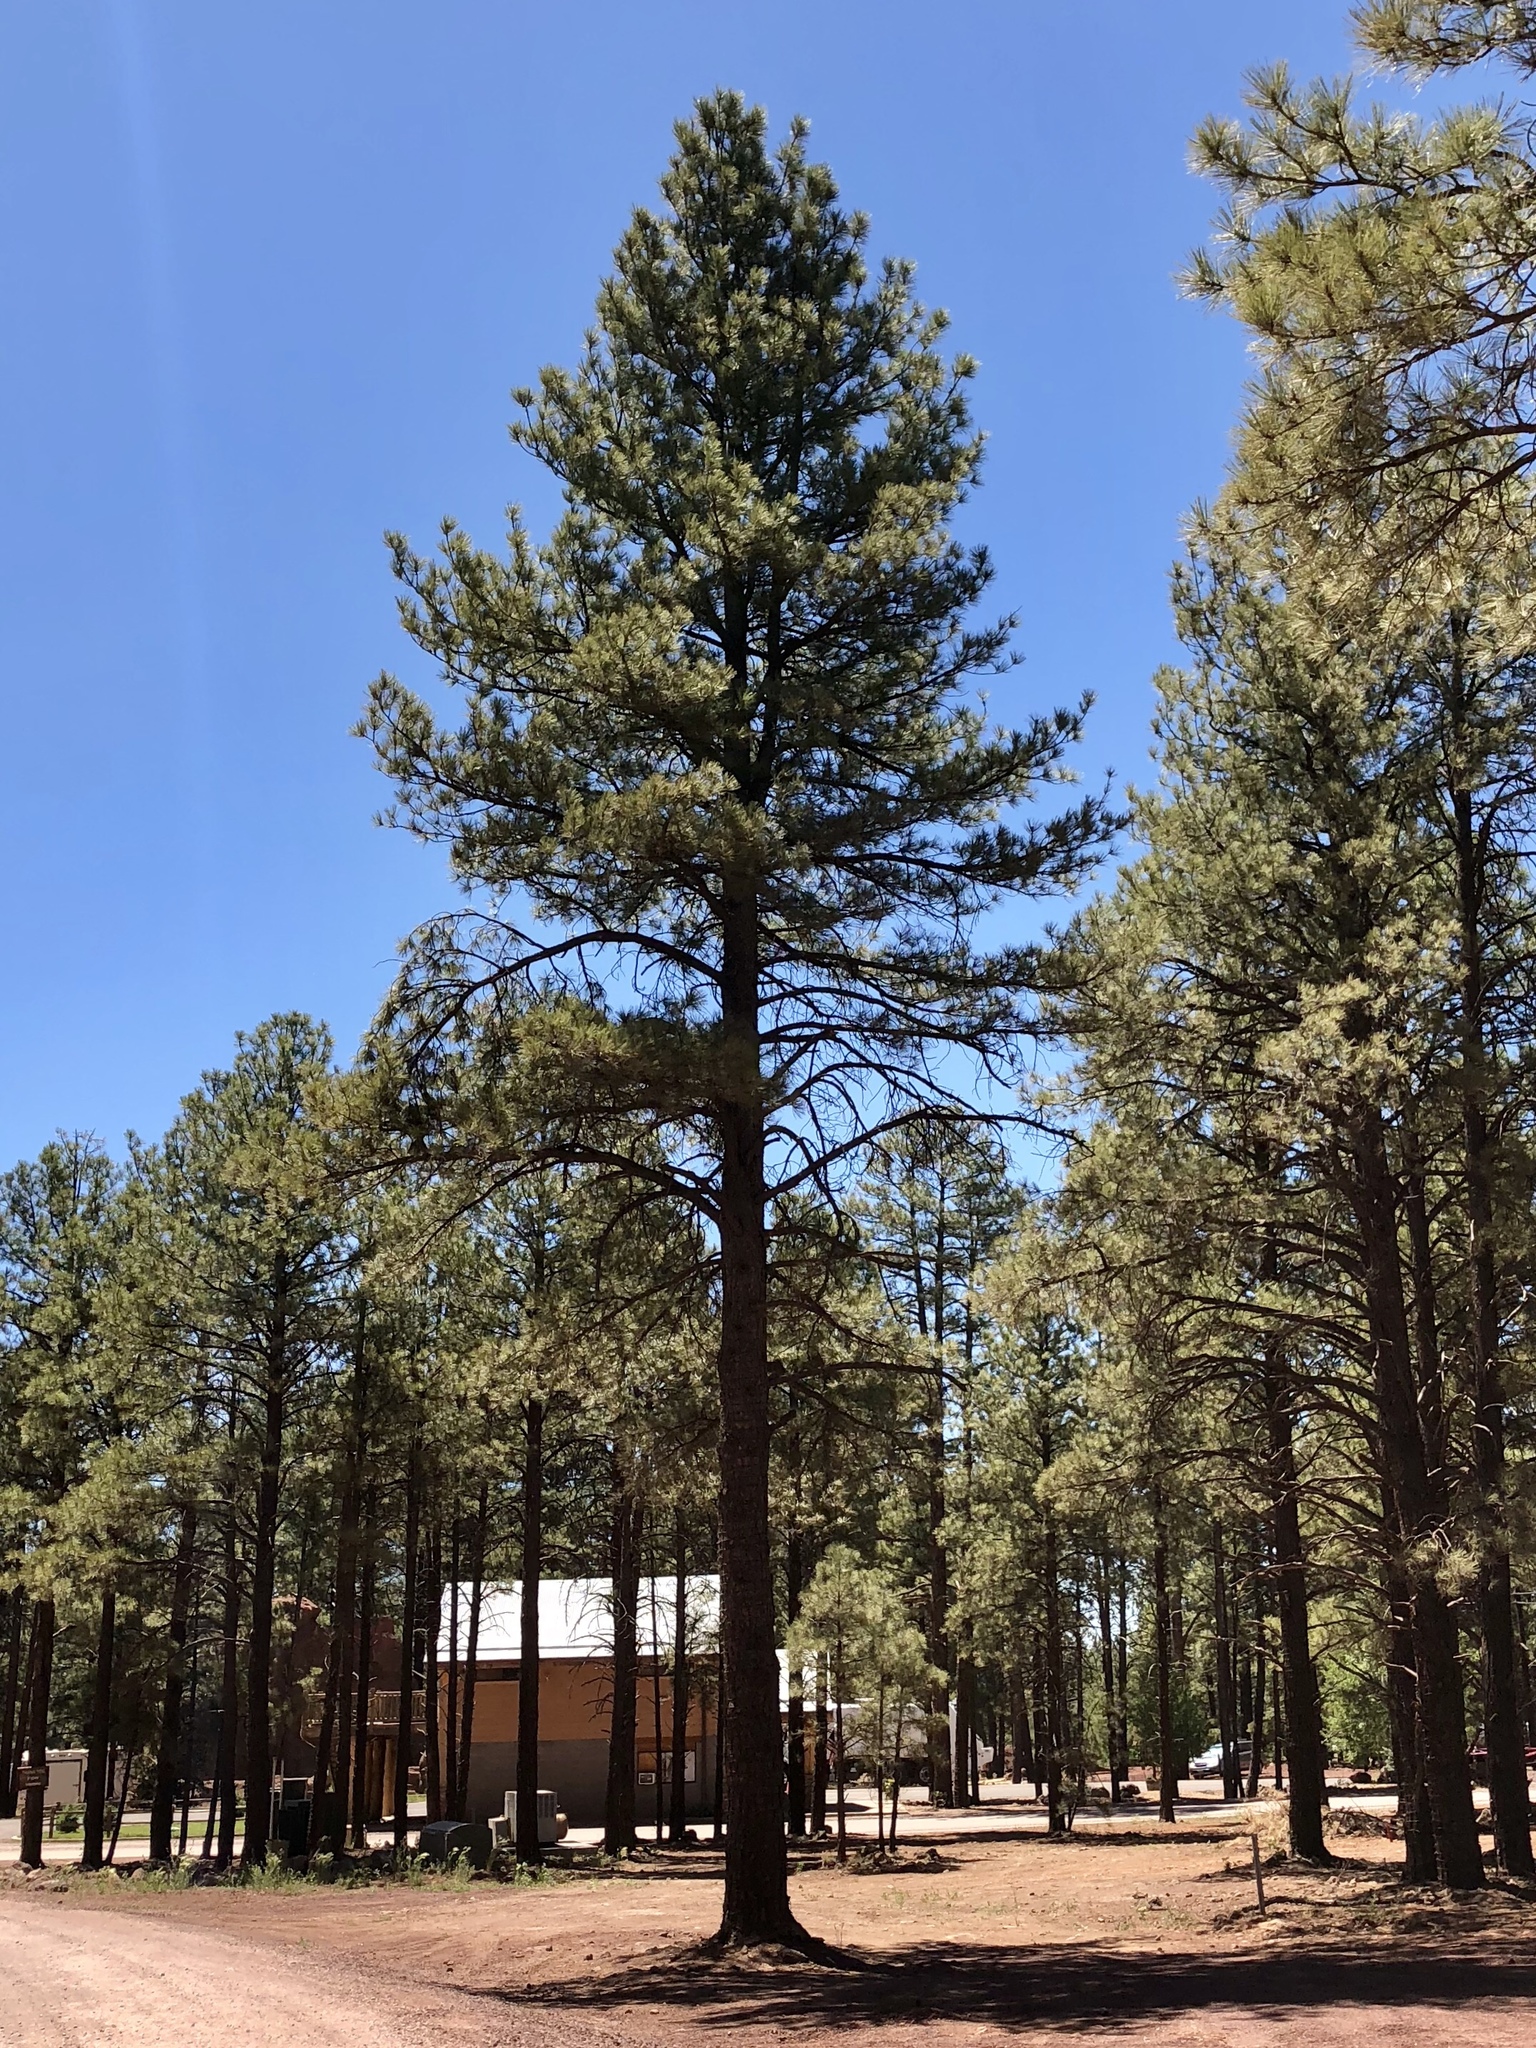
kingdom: Plantae
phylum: Tracheophyta
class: Pinopsida
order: Pinales
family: Pinaceae
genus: Pinus
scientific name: Pinus ponderosa
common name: Western yellow-pine
